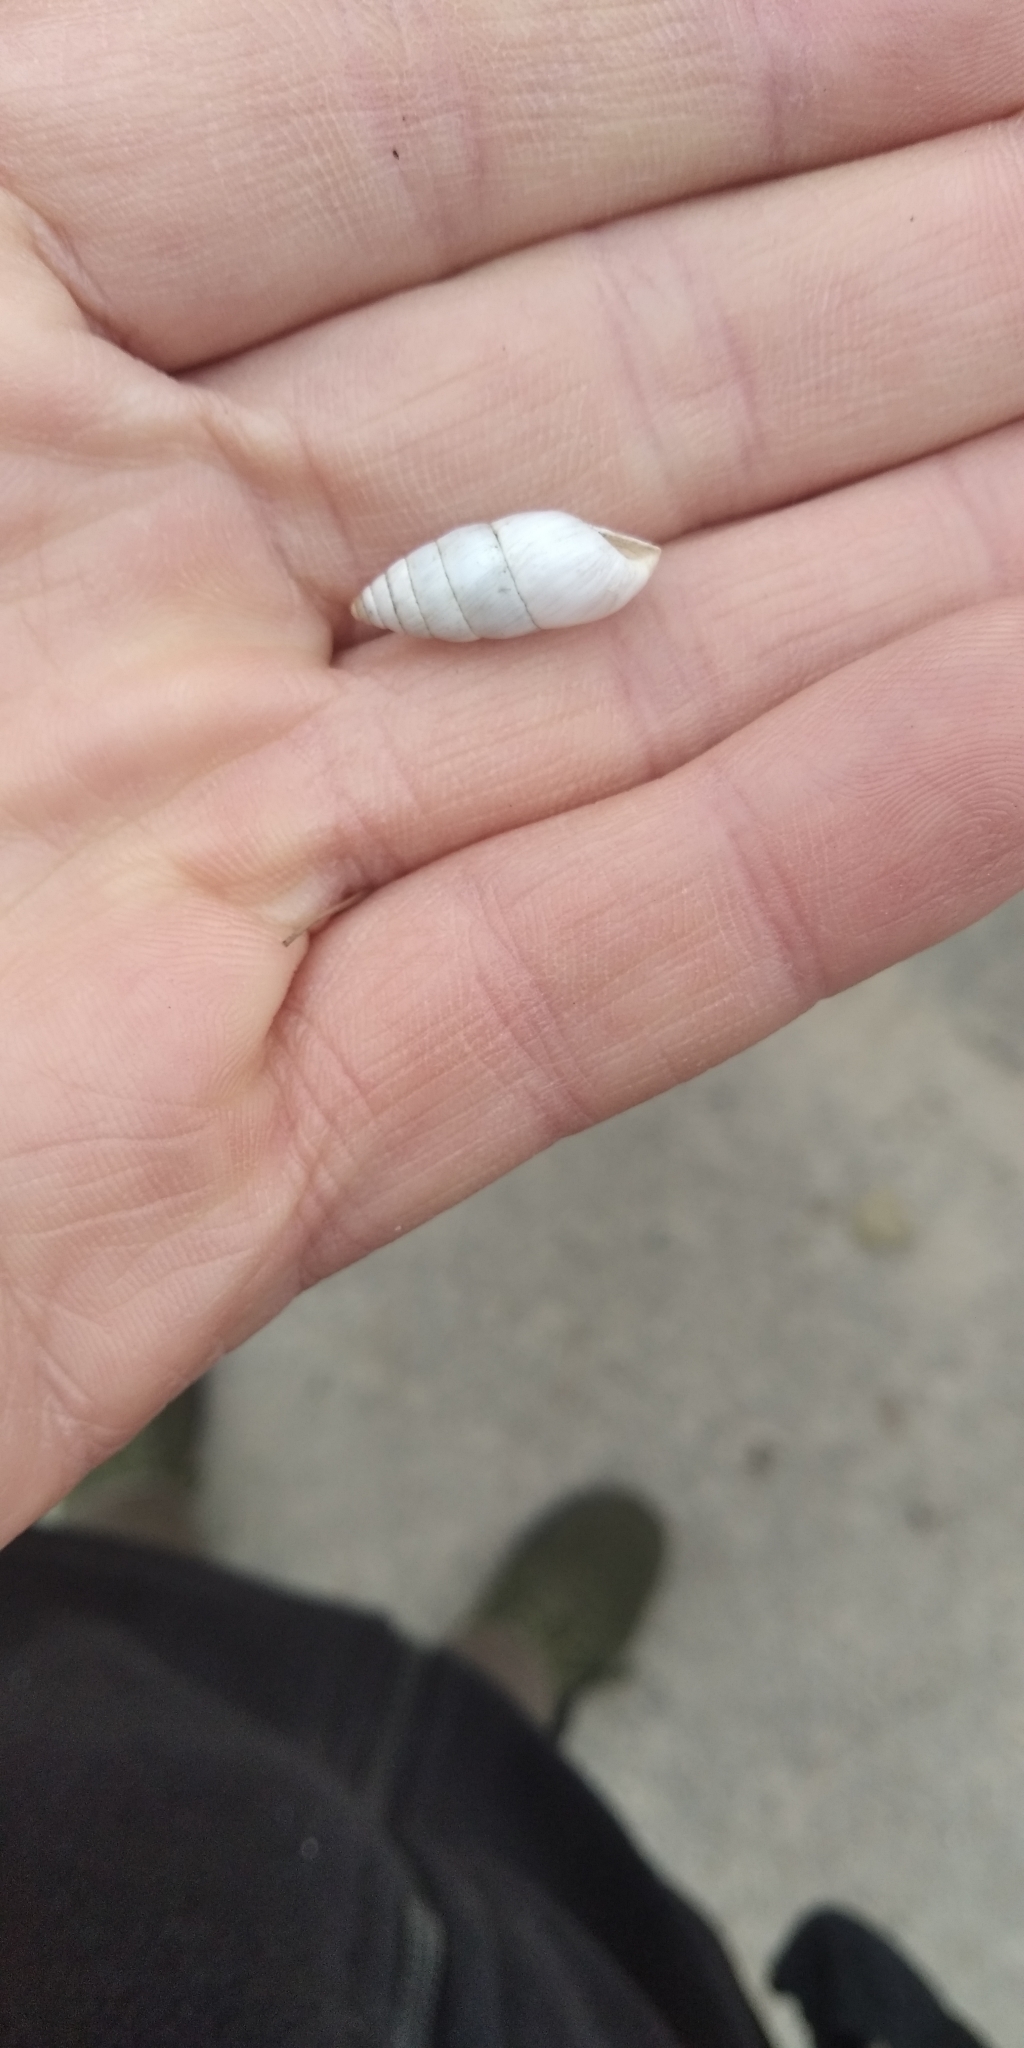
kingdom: Animalia
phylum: Mollusca
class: Gastropoda
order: Stylommatophora
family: Enidae
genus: Brephulopsis
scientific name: Brephulopsis cylindrica
